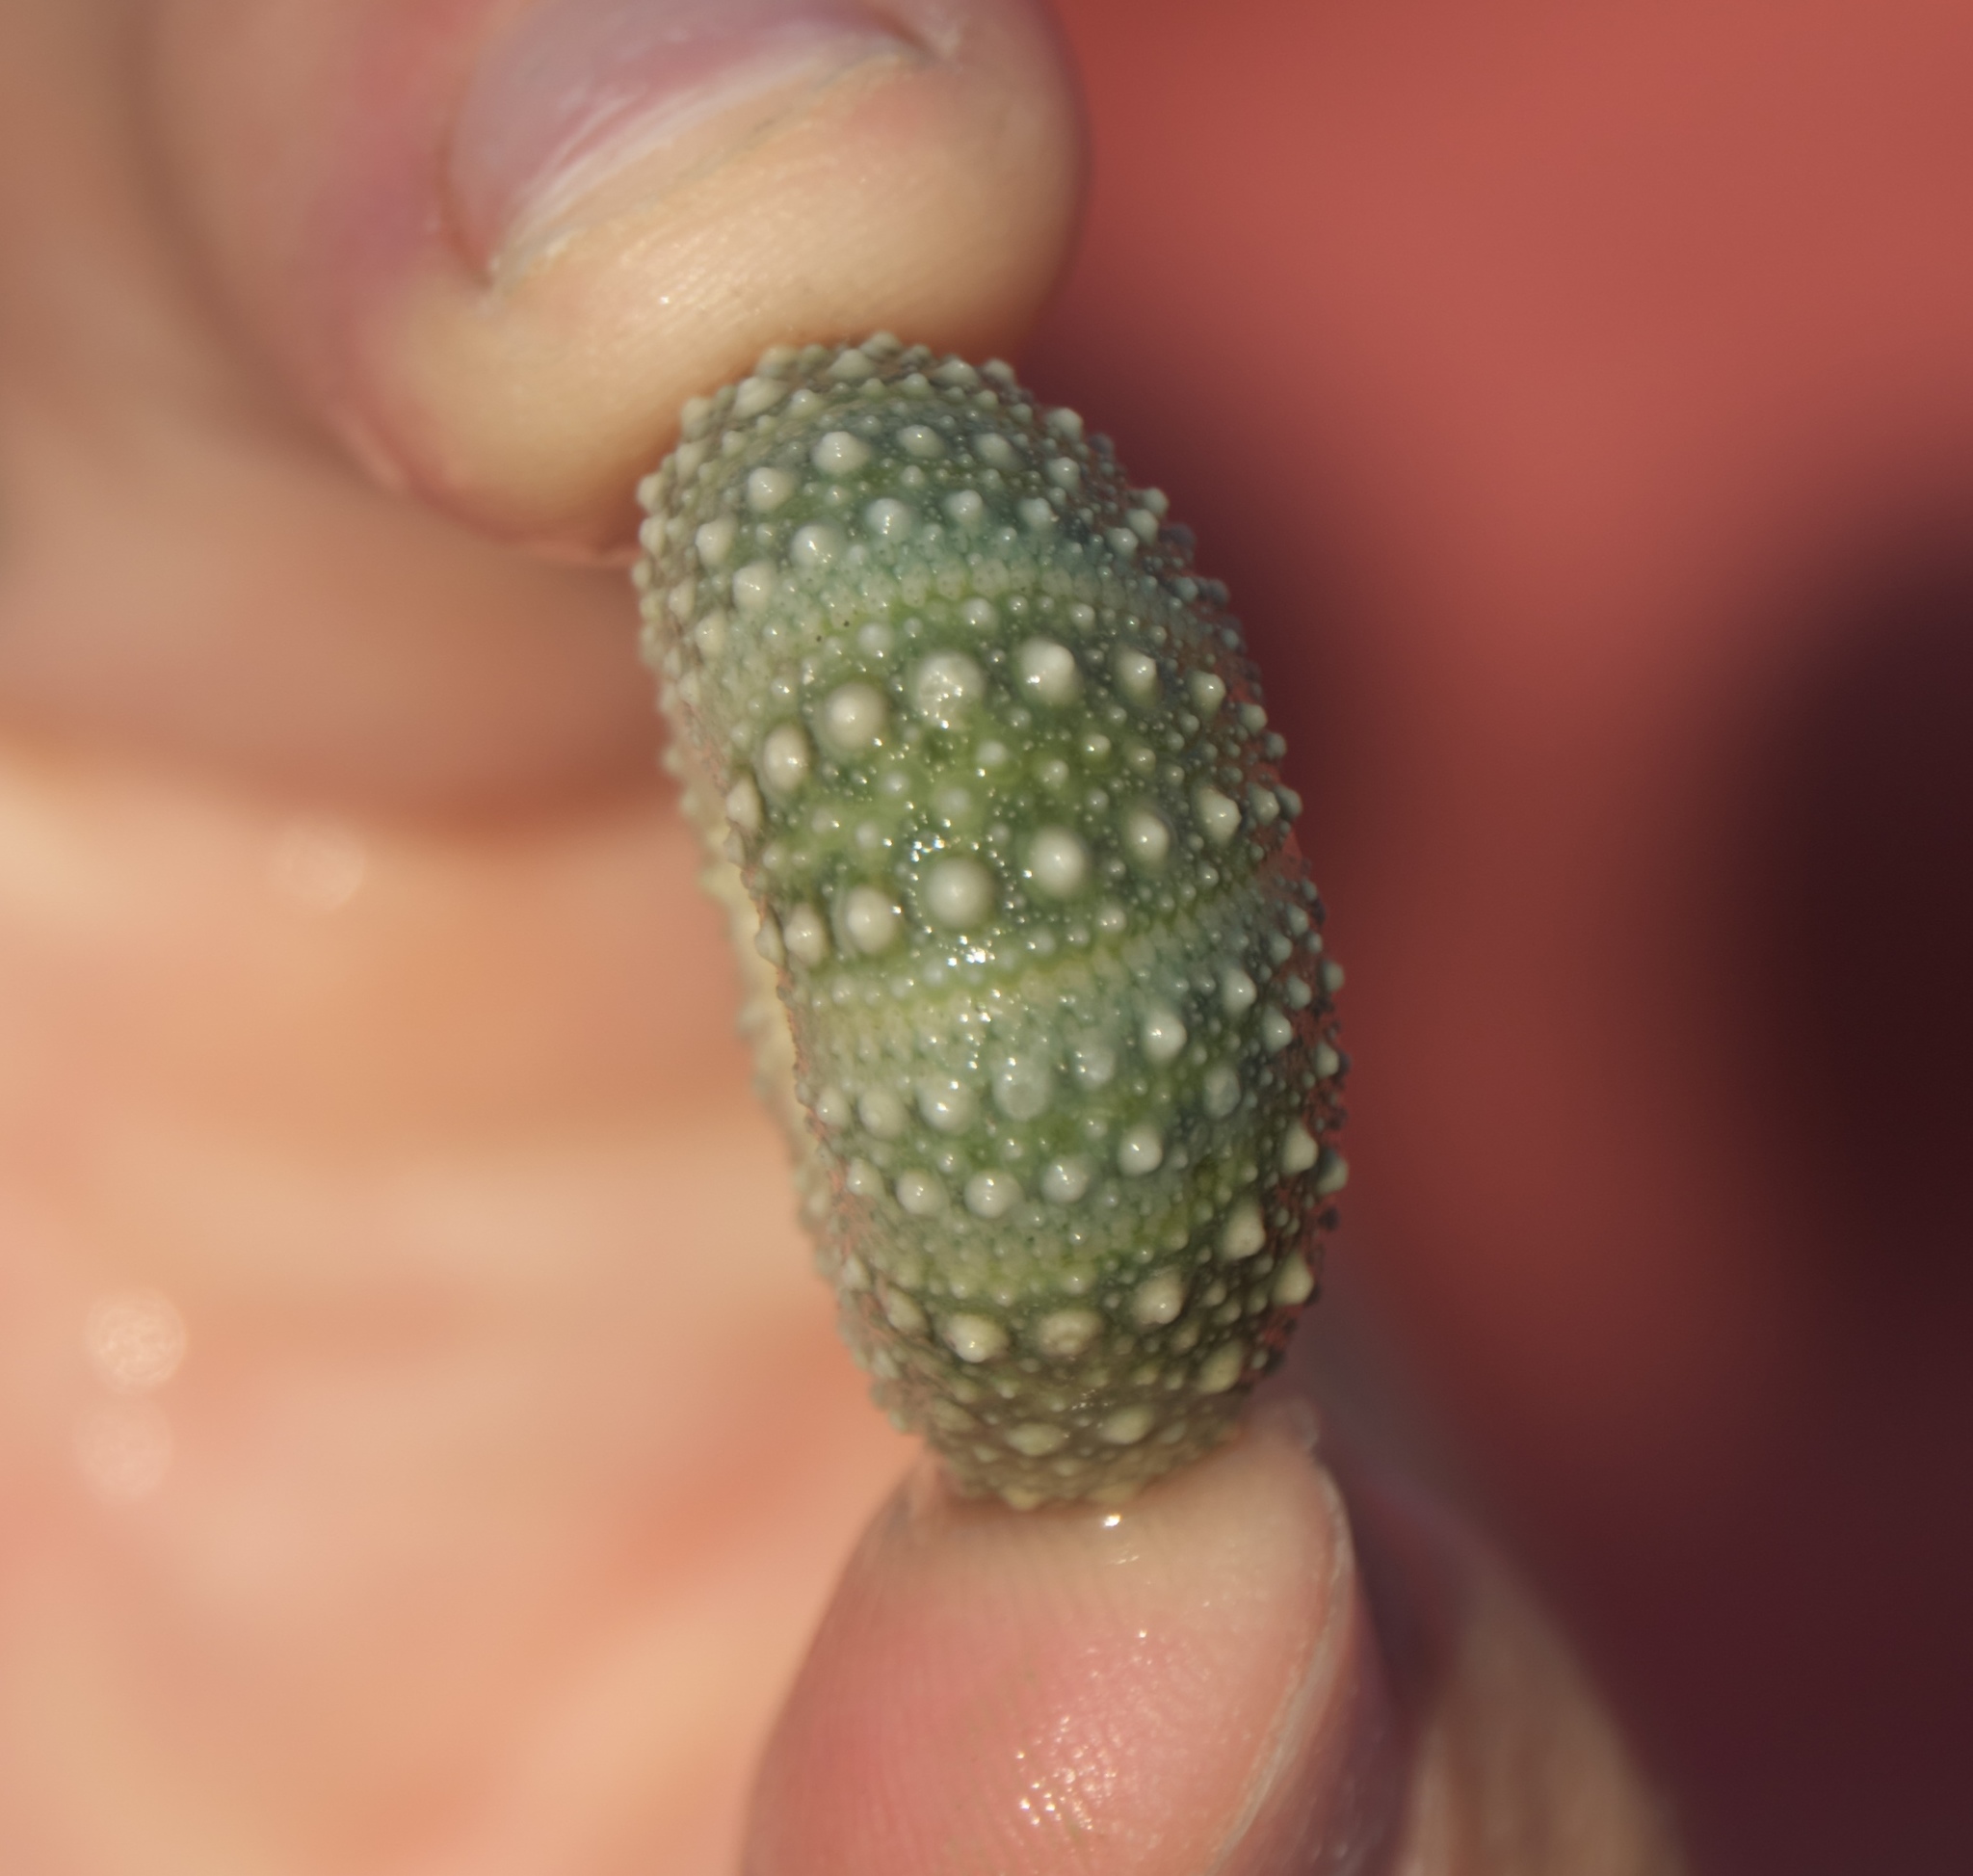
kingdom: Animalia
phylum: Echinodermata
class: Echinoidea
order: Camarodonta
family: Echinometridae
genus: Evechinus
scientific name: Evechinus chloroticus
